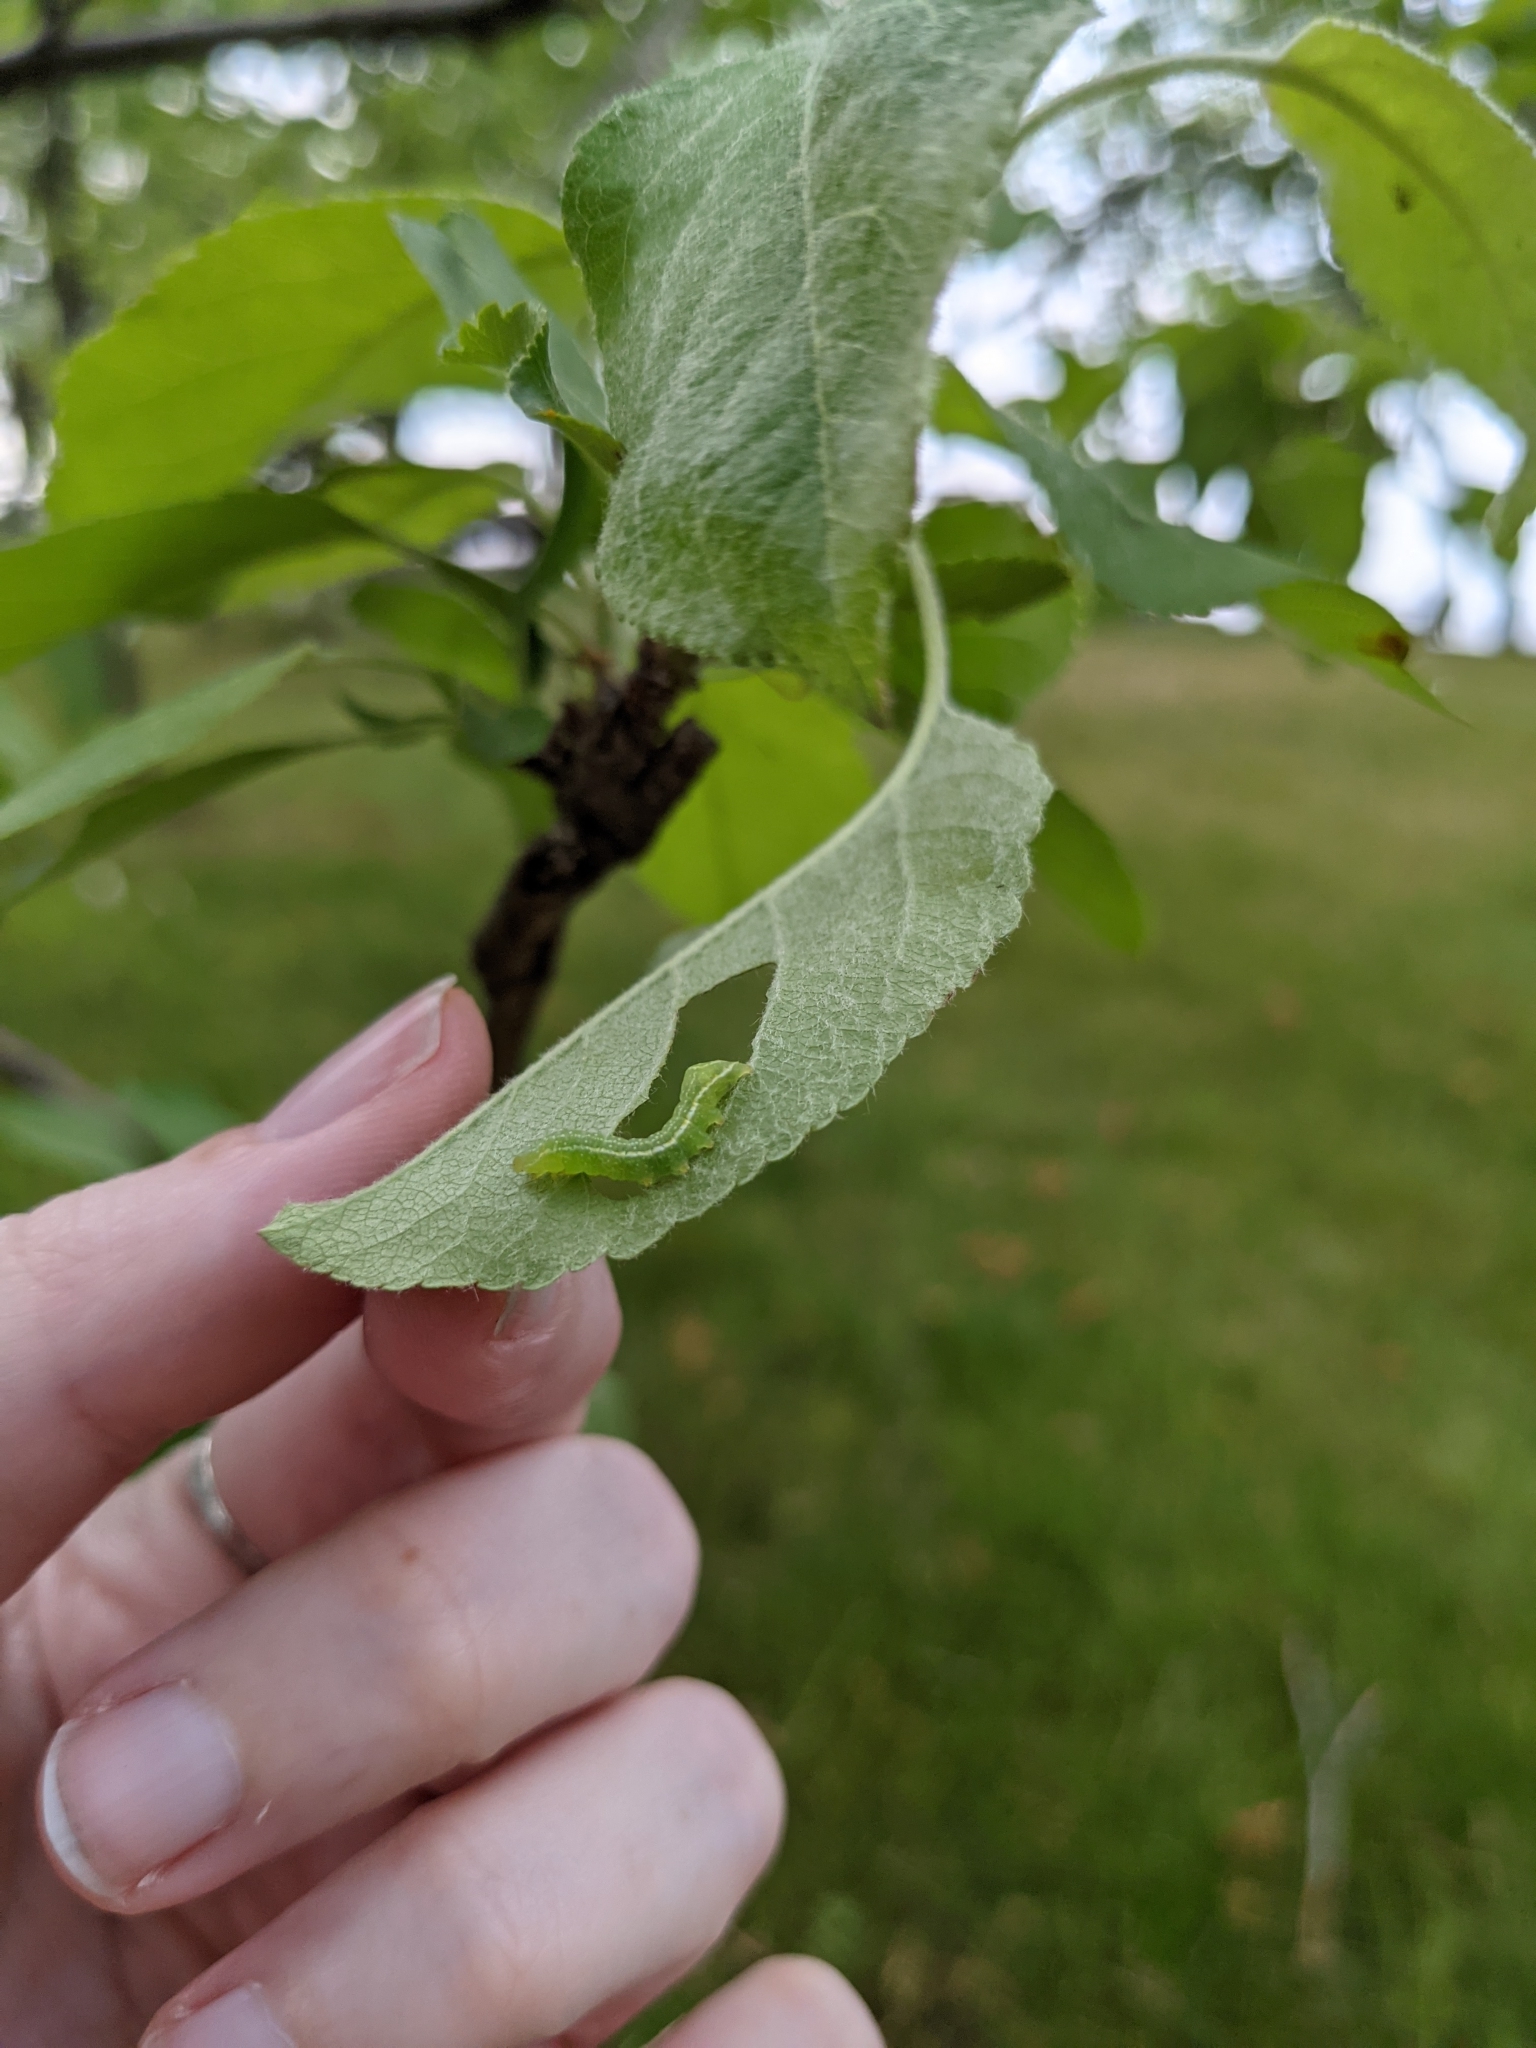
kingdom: Animalia
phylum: Arthropoda
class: Insecta
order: Lepidoptera
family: Noctuidae
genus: Amphipyra
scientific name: Amphipyra pyramidoides
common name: American copper underwing
